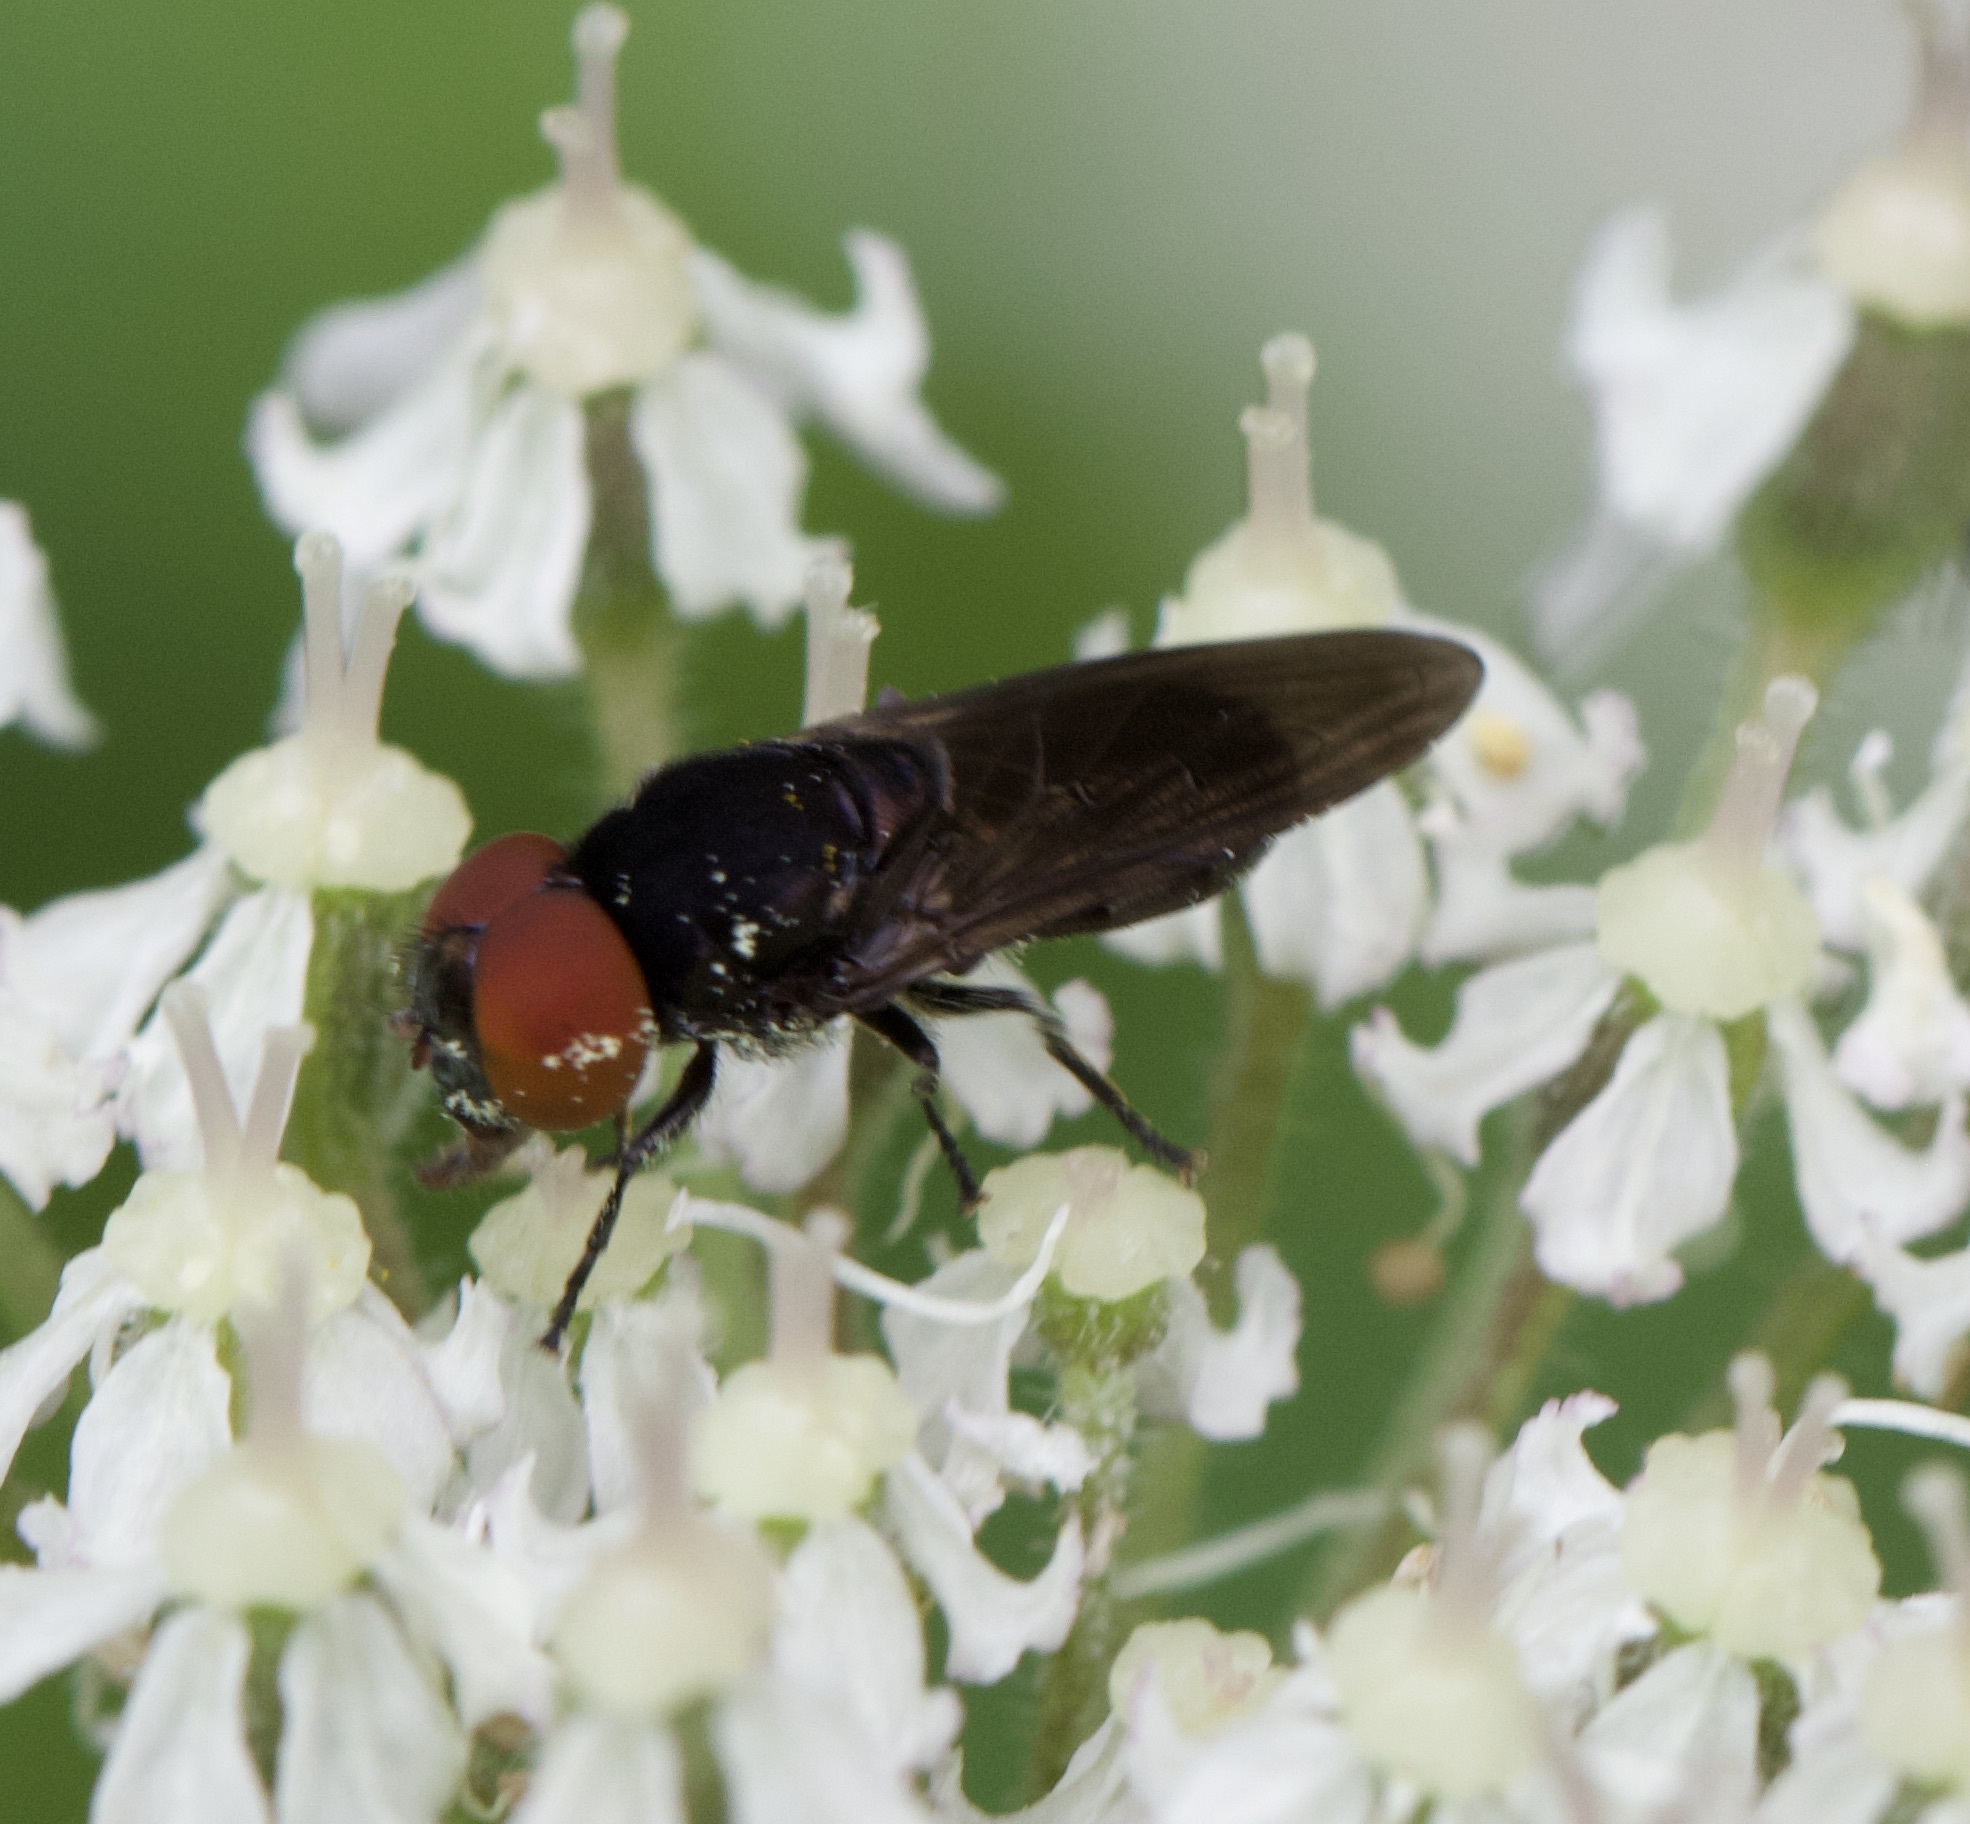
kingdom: Animalia
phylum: Arthropoda
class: Insecta
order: Diptera
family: Syrphidae
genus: Chrysogaster
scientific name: Chrysogaster solstitialis
